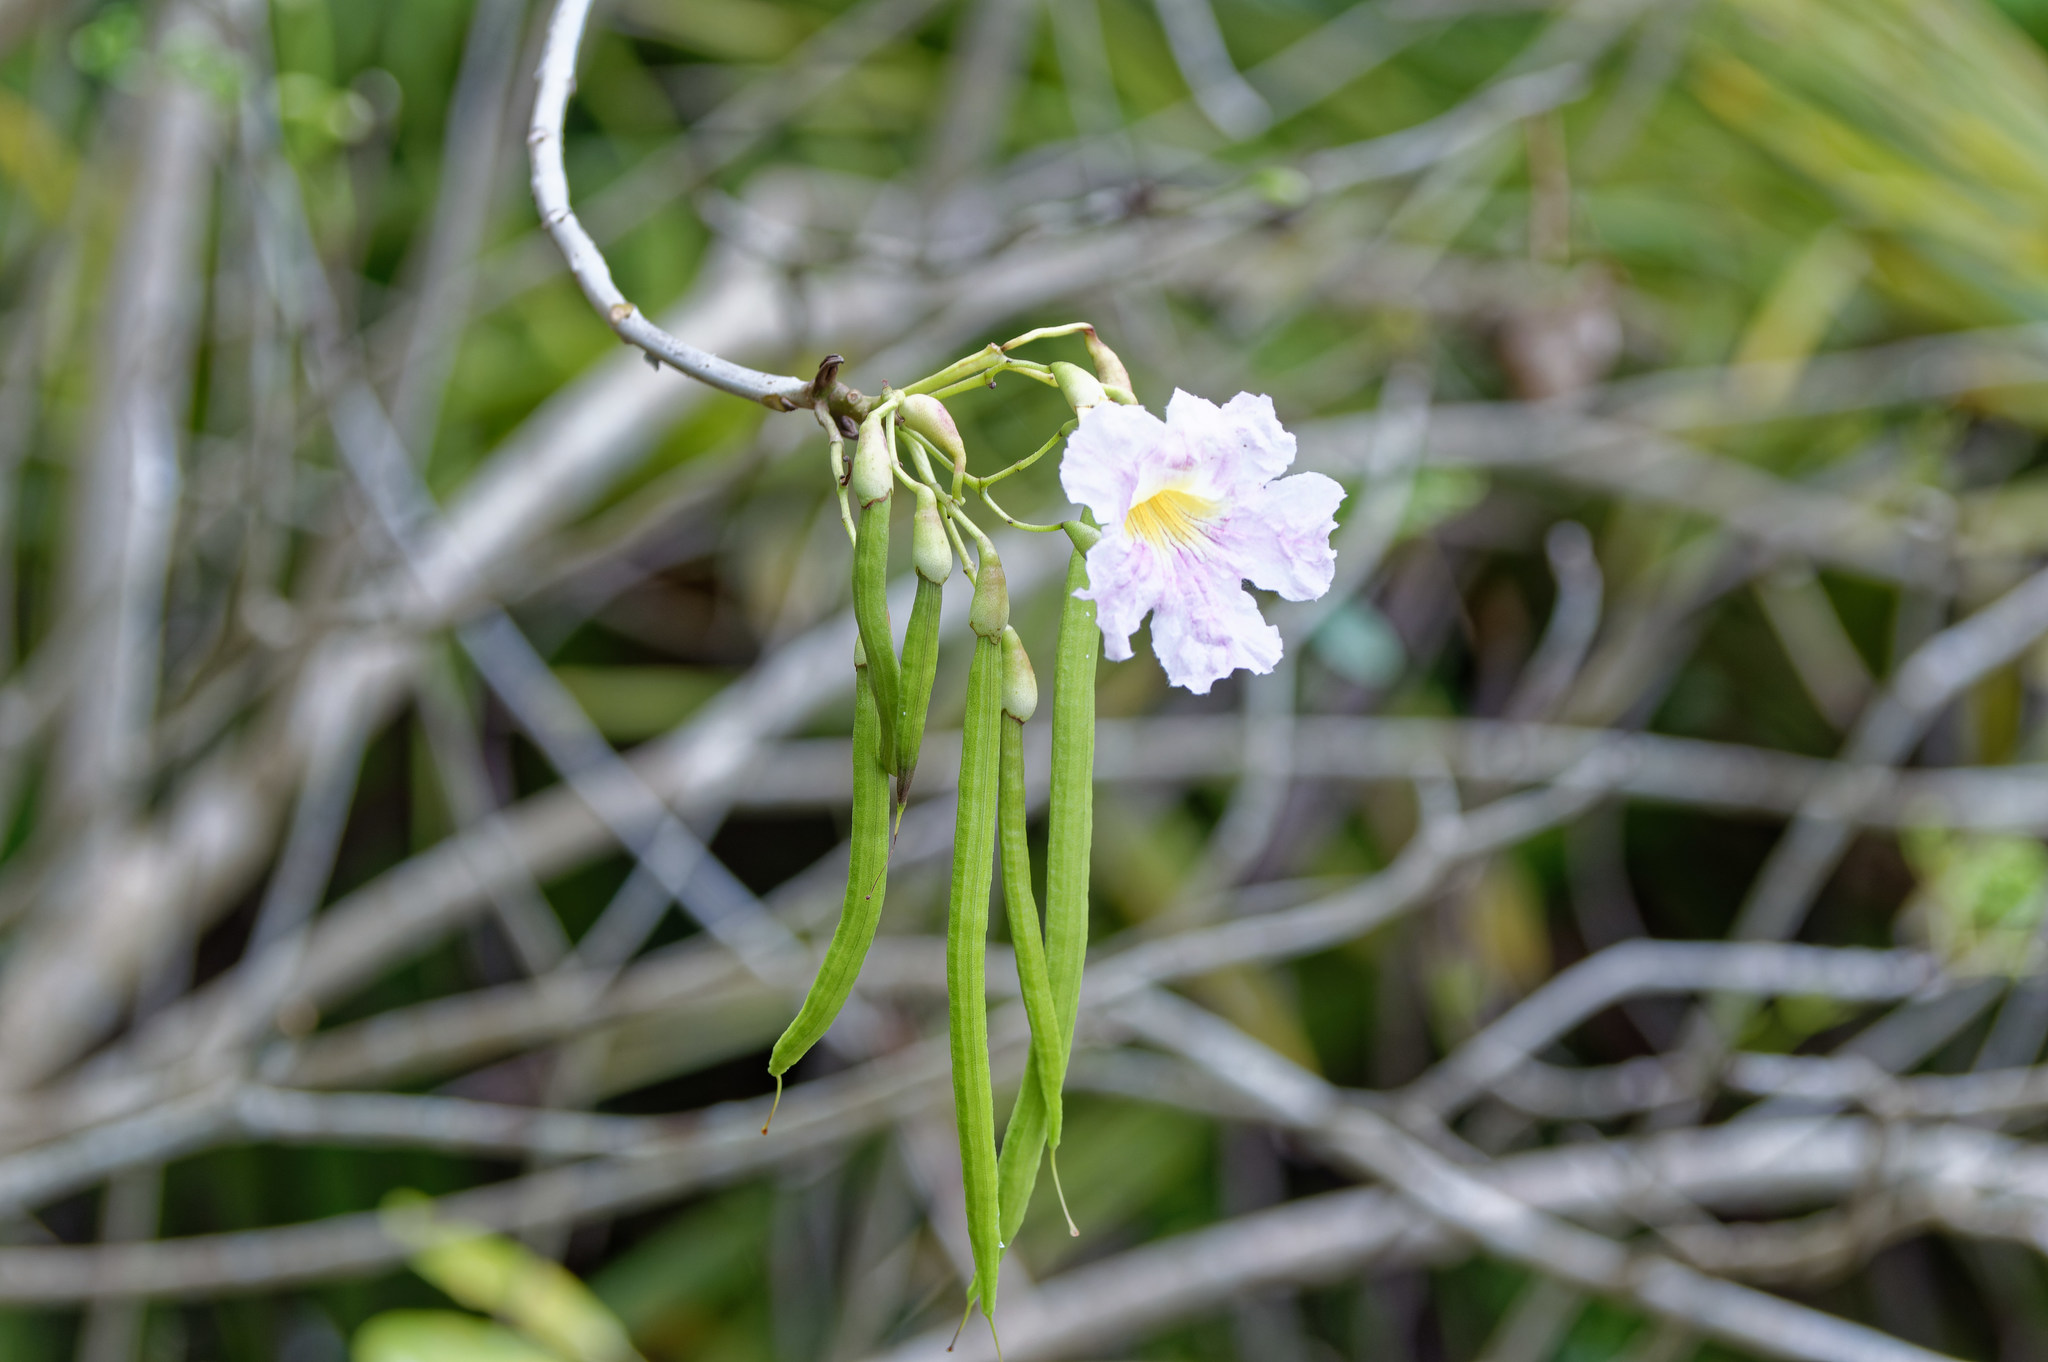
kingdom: Plantae
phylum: Tracheophyta
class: Magnoliopsida
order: Lamiales
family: Bignoniaceae
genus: Tabebuia
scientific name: Tabebuia heterophylla
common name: White cedar
